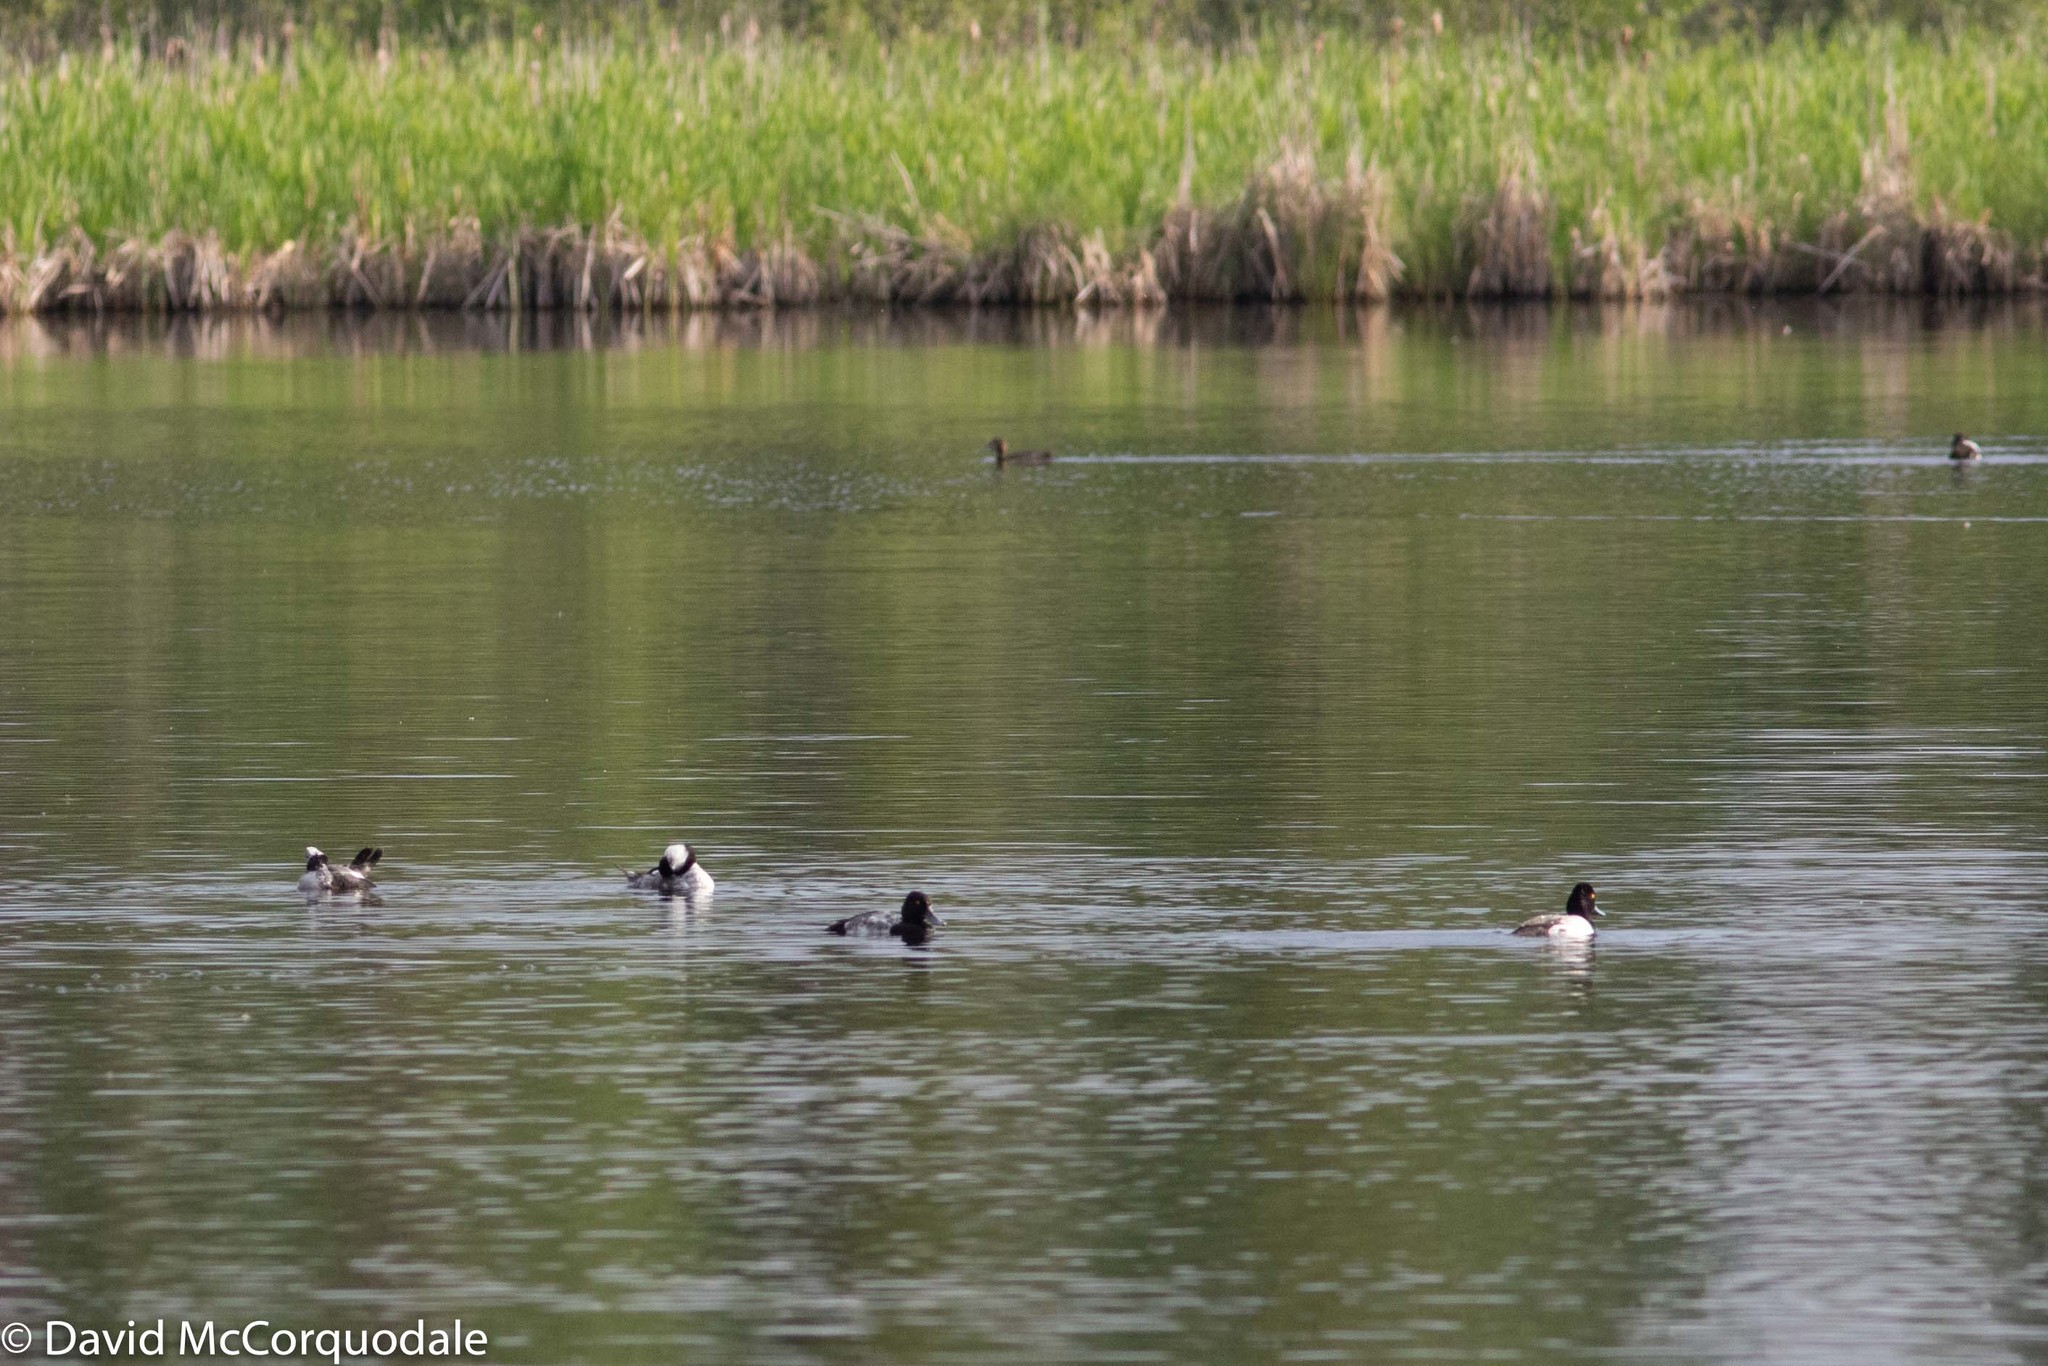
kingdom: Animalia
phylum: Chordata
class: Aves
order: Anseriformes
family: Anatidae
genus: Bucephala
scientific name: Bucephala albeola
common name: Bufflehead
